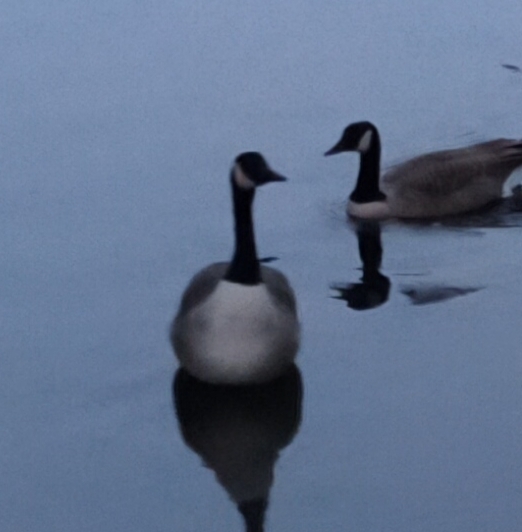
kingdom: Animalia
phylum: Chordata
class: Aves
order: Anseriformes
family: Anatidae
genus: Branta
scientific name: Branta canadensis
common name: Canada goose
